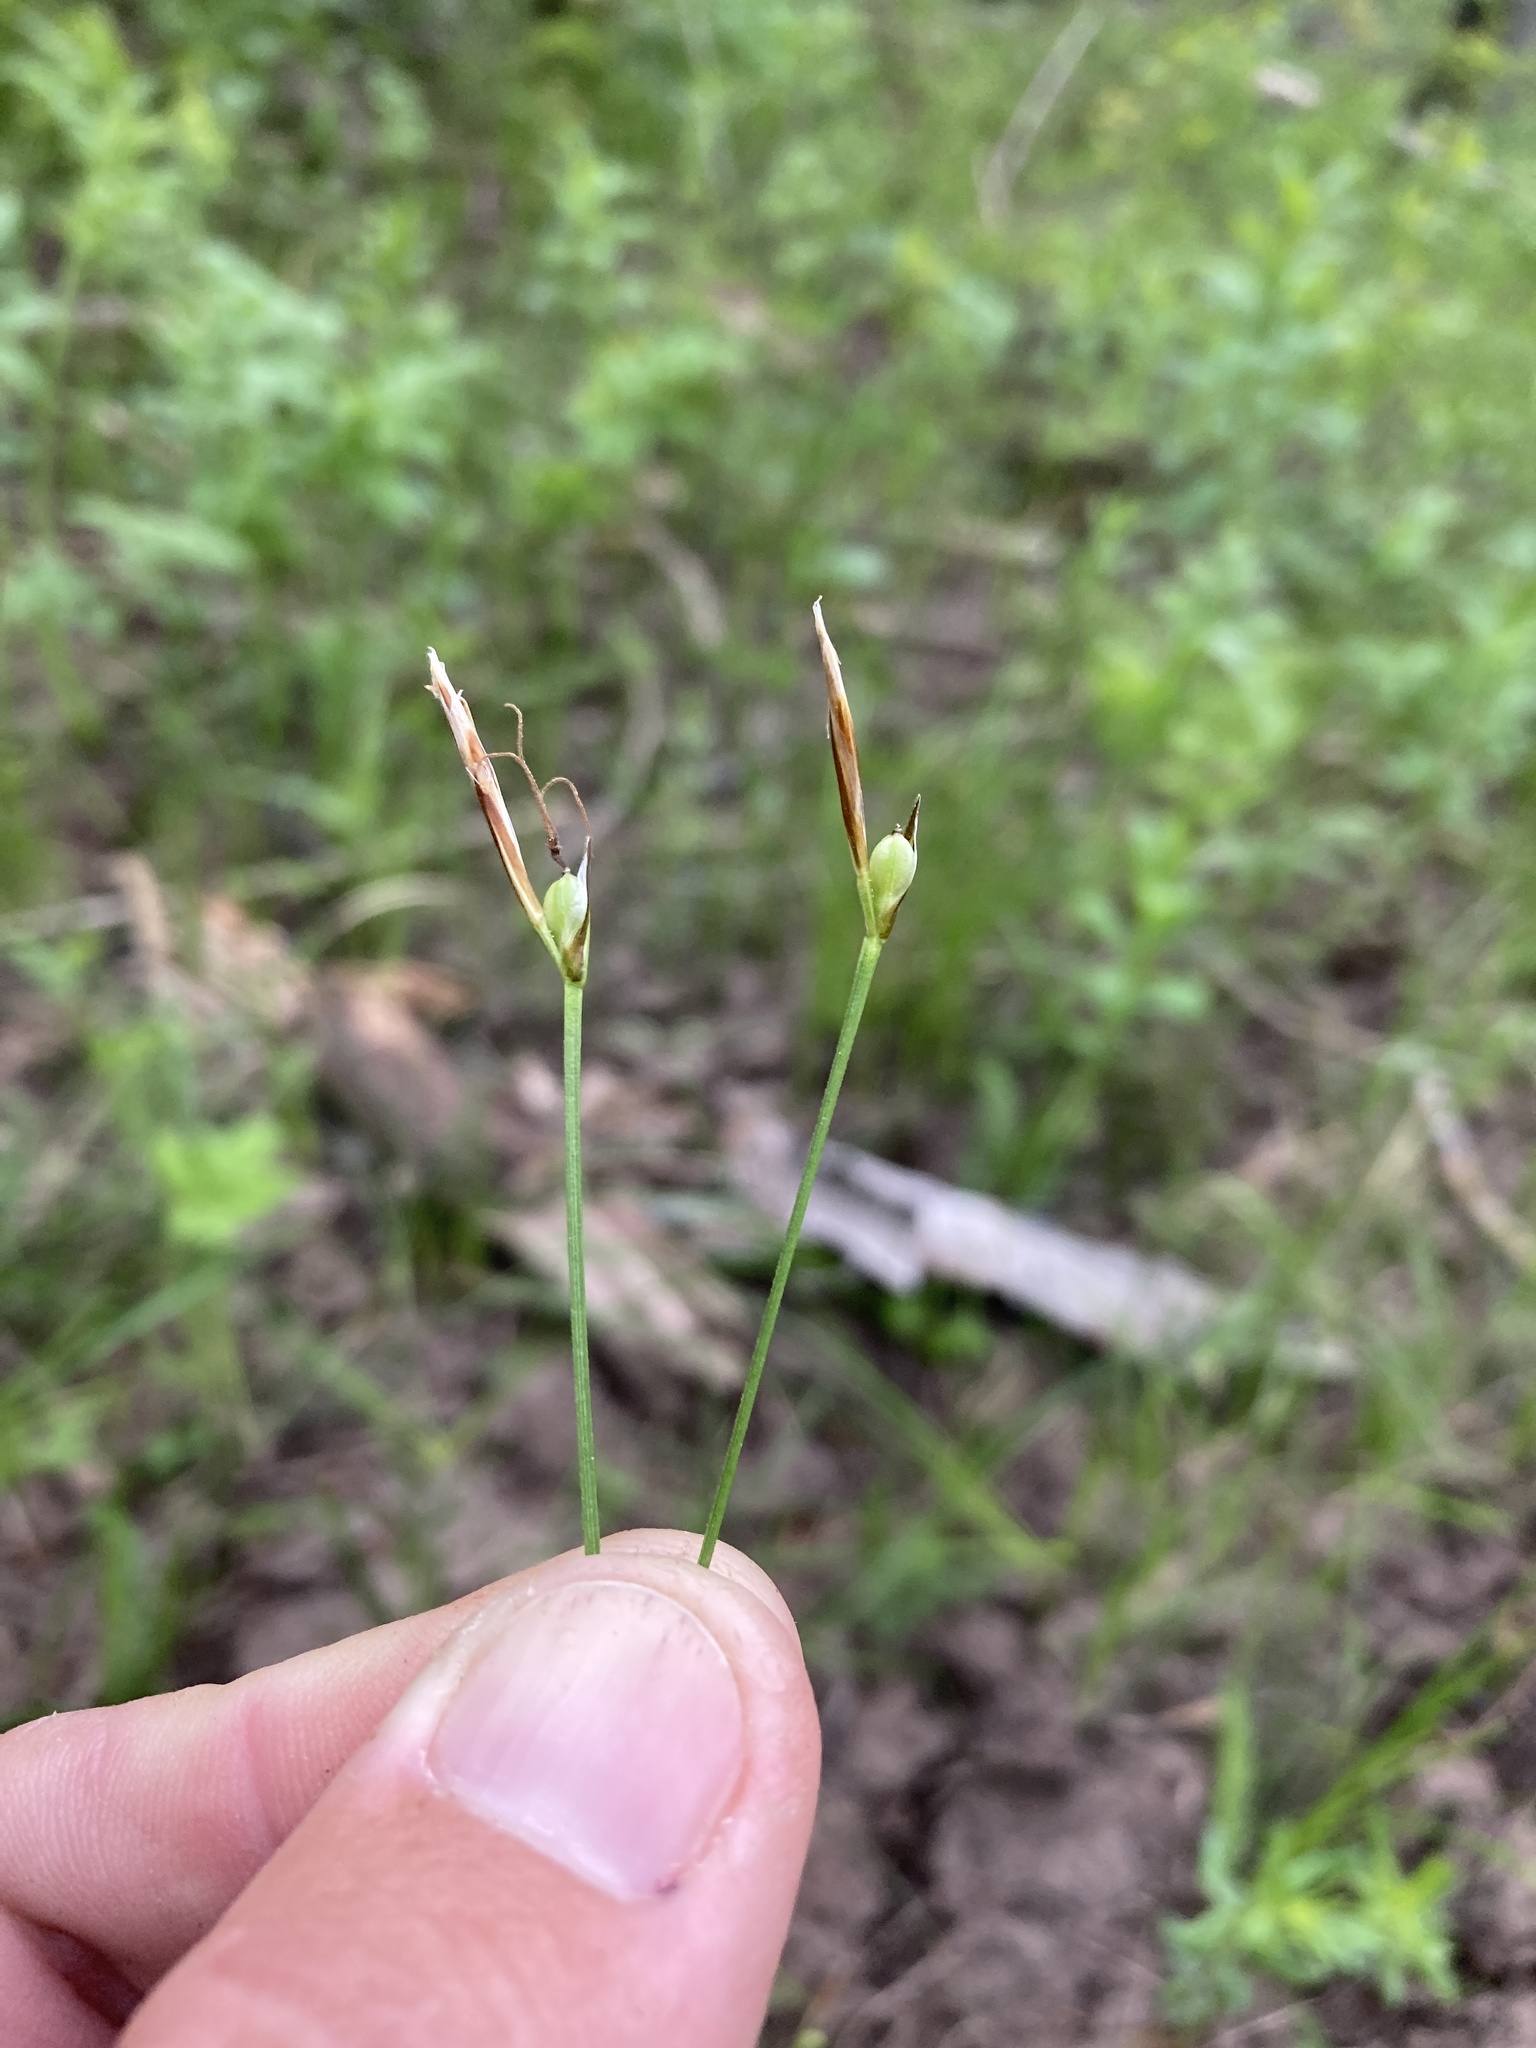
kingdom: Plantae
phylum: Tracheophyta
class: Liliopsida
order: Poales
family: Cyperaceae
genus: Carex
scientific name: Carex geyeri
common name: Elk sedge
